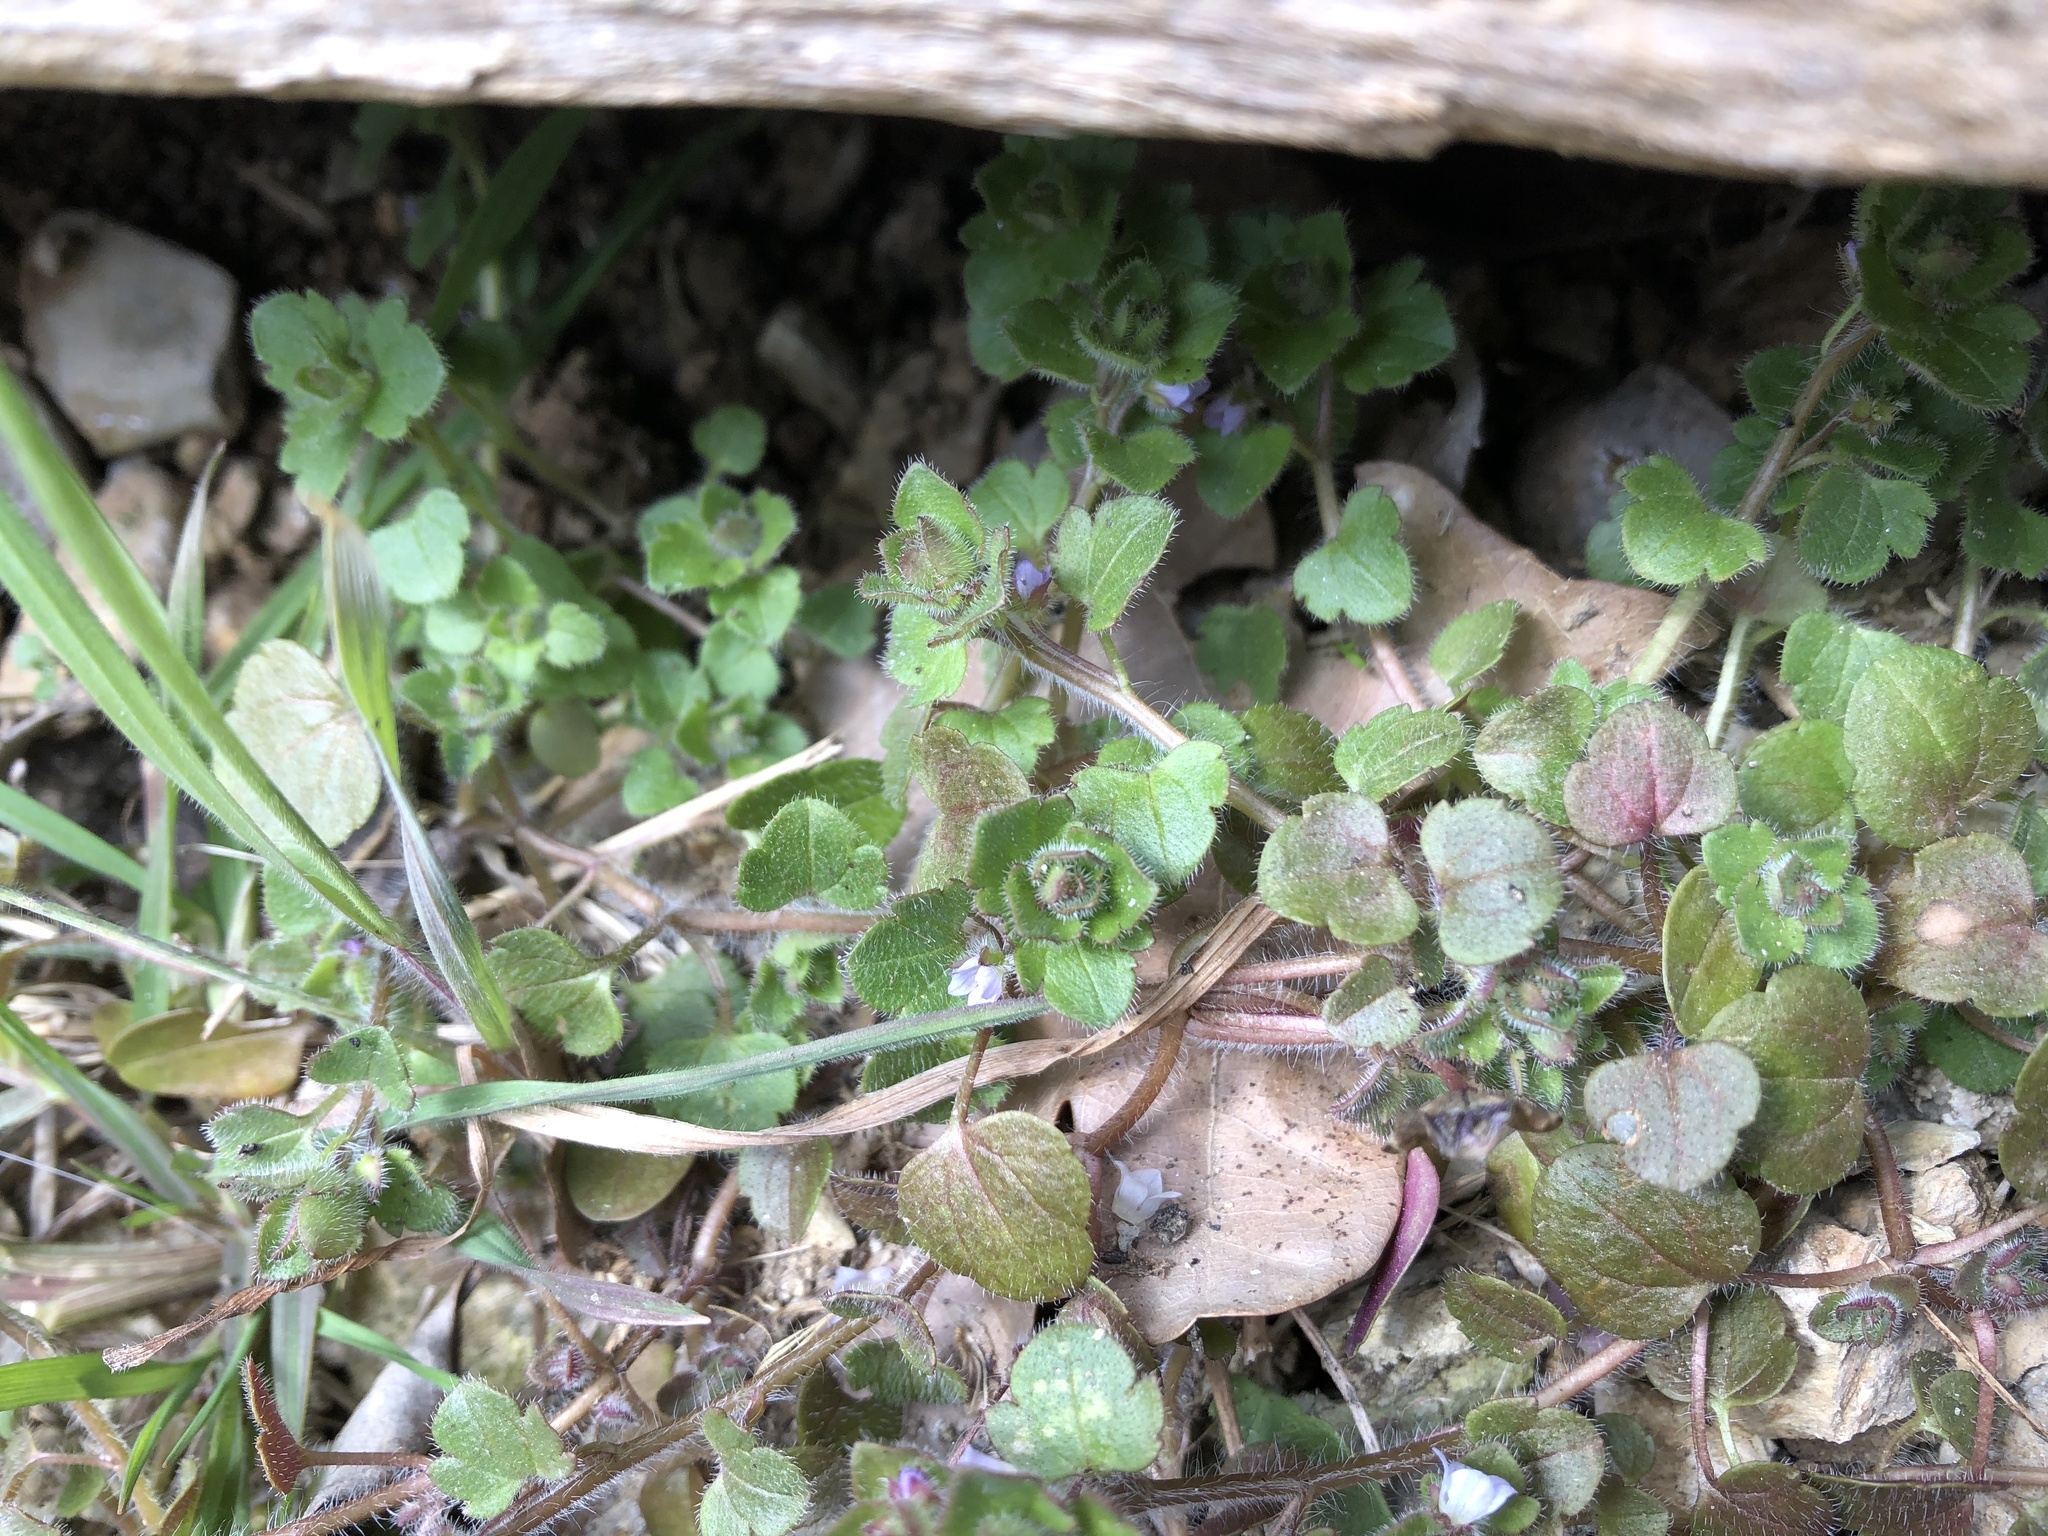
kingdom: Plantae
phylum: Tracheophyta
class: Magnoliopsida
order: Lamiales
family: Plantaginaceae
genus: Veronica
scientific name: Veronica sublobata
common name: False ivy-leaved speedwell
